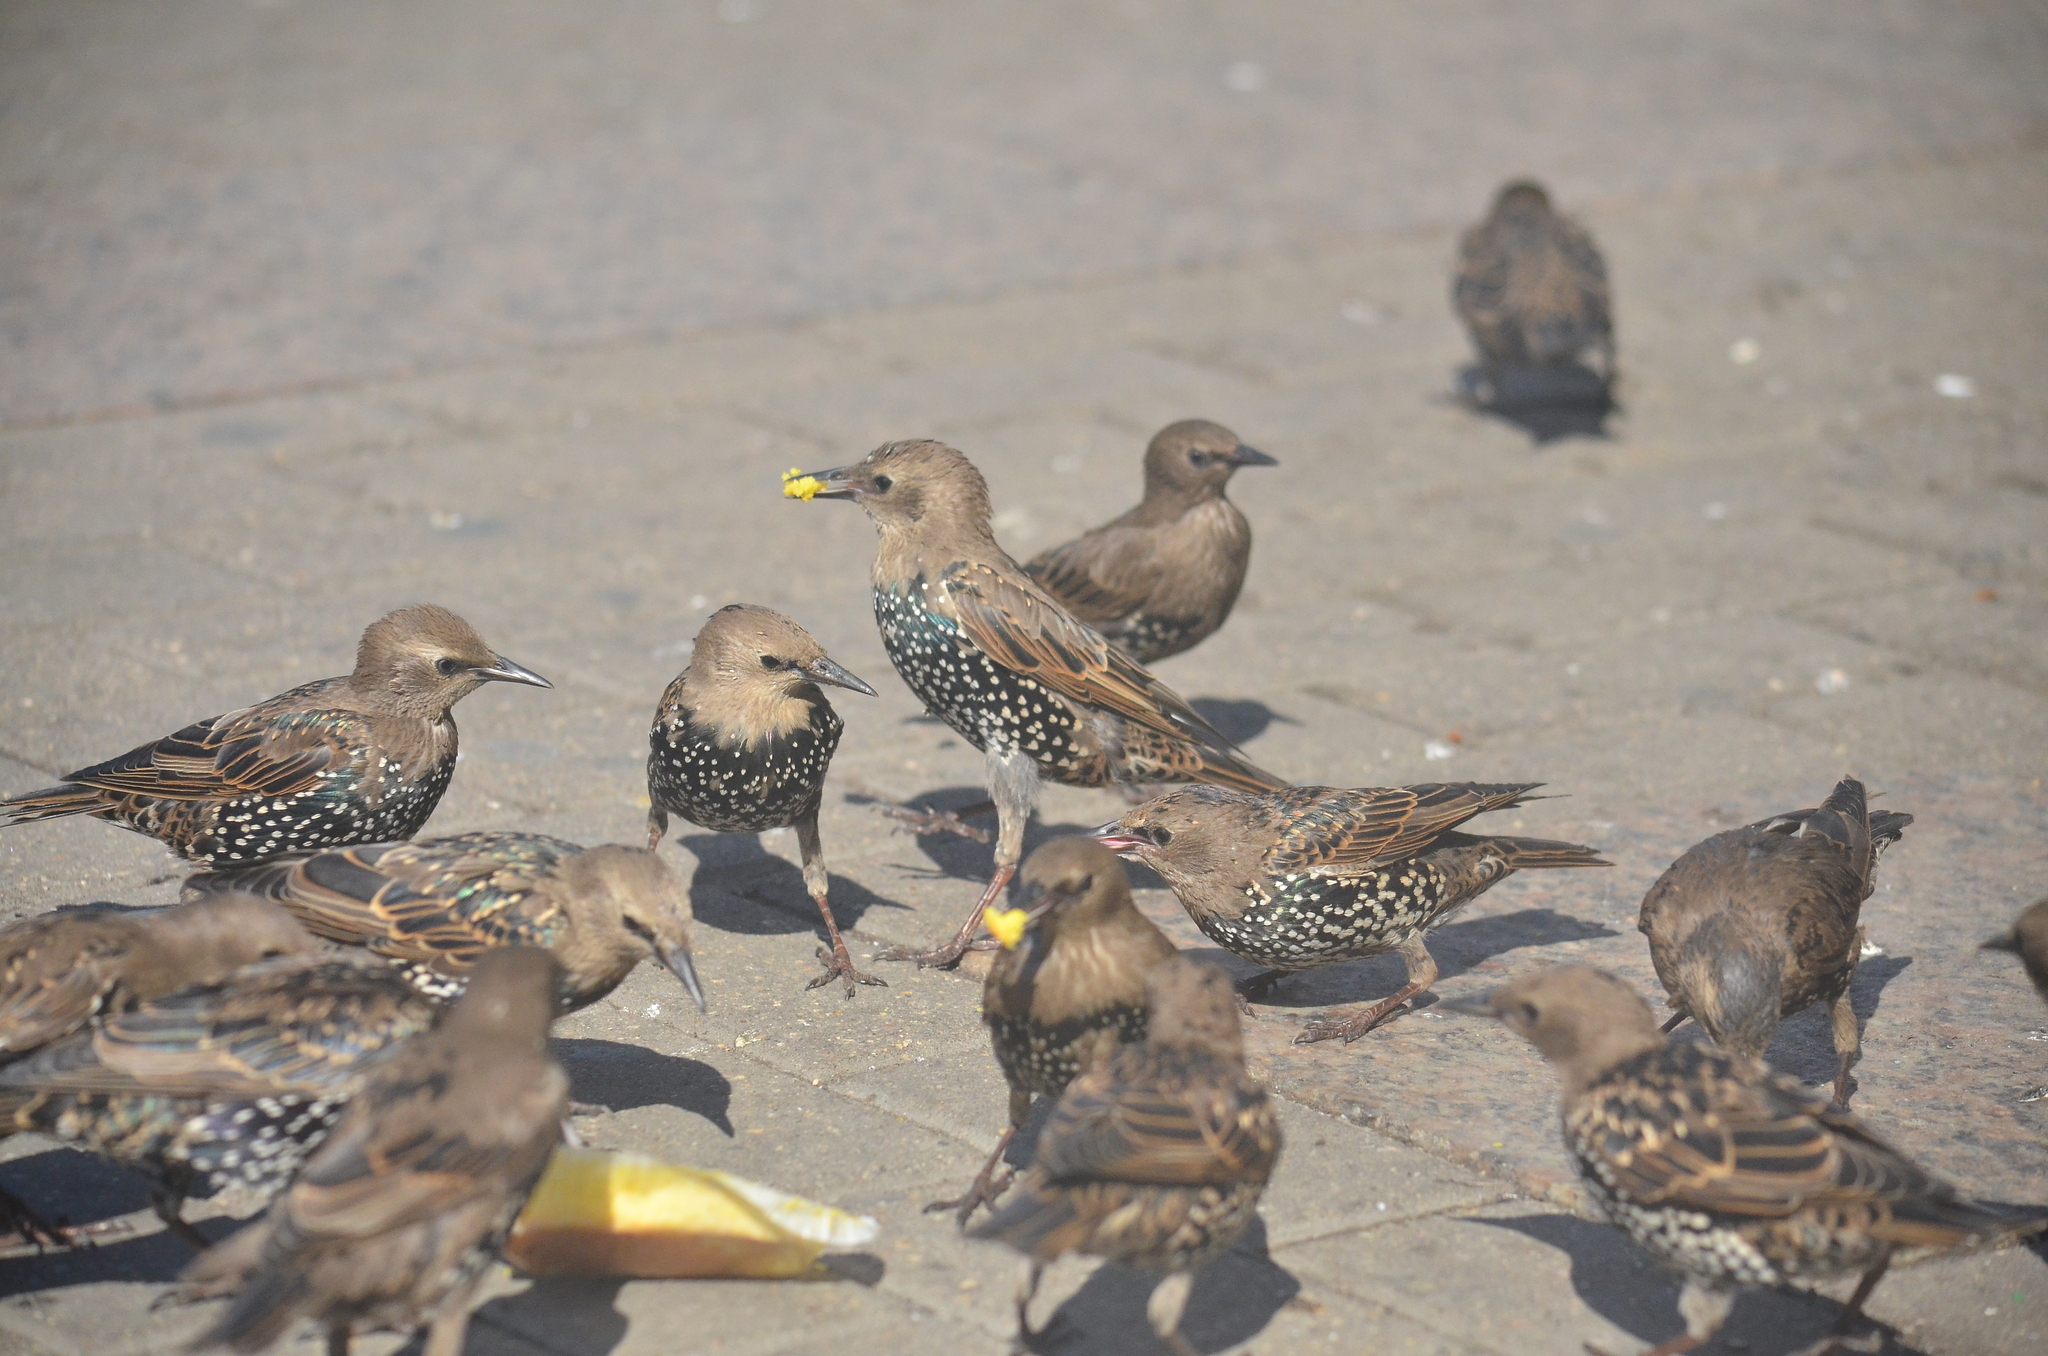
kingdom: Animalia
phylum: Chordata
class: Aves
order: Passeriformes
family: Sturnidae
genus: Sturnus
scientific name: Sturnus vulgaris
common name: Common starling
